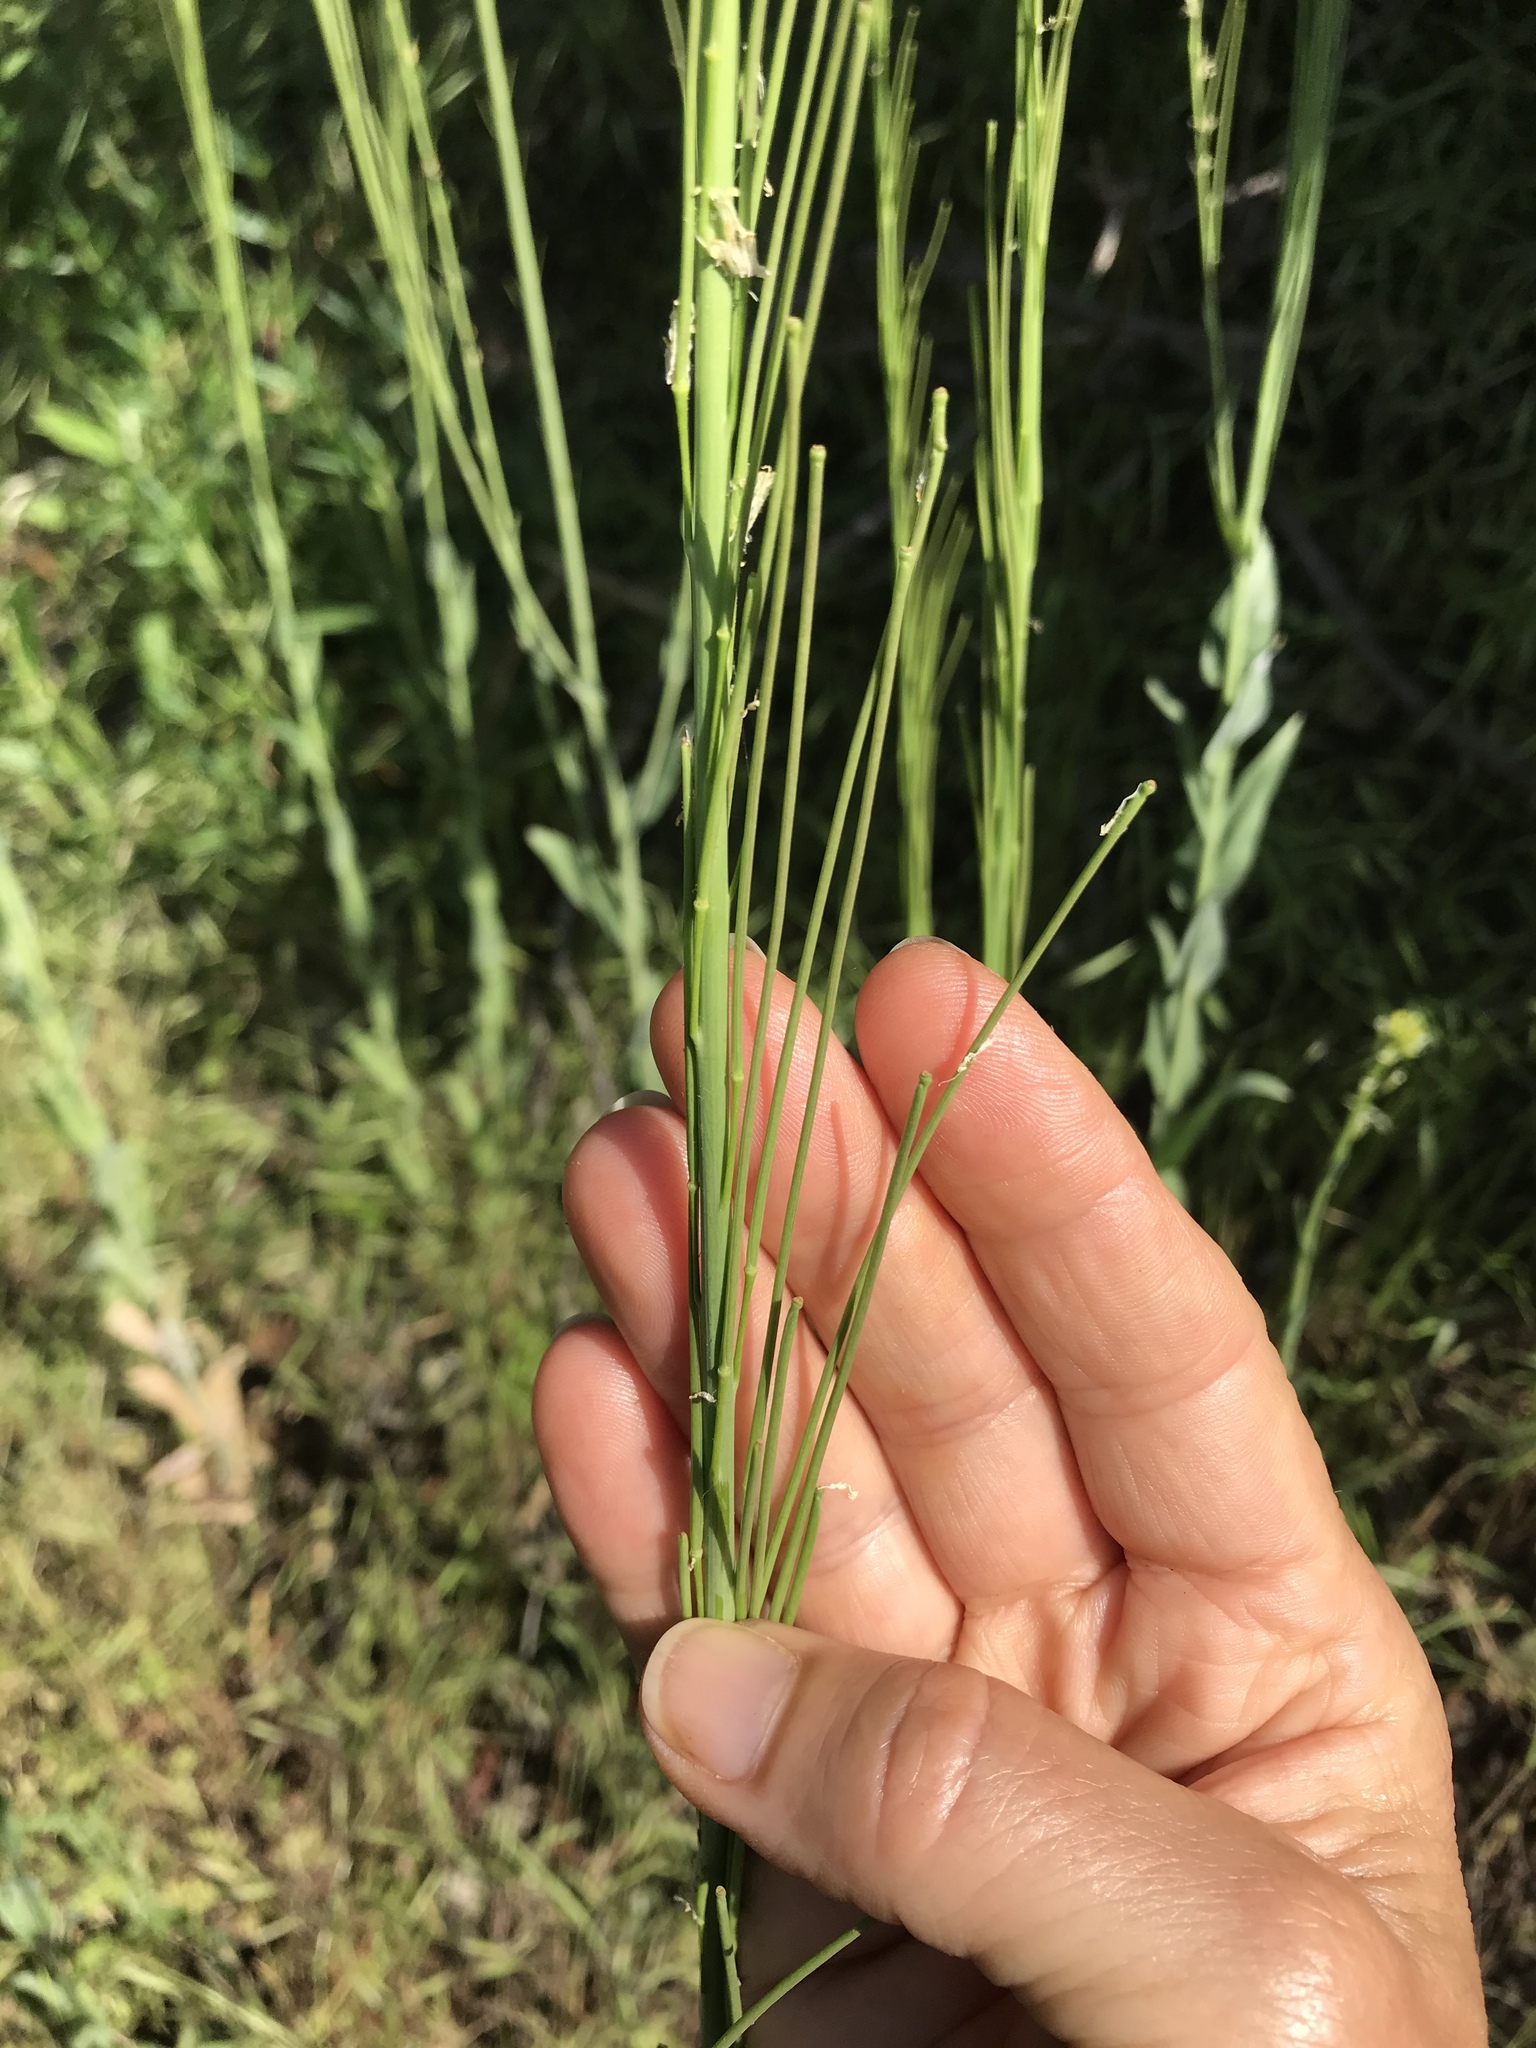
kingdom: Plantae
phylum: Tracheophyta
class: Magnoliopsida
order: Brassicales
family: Brassicaceae
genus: Turritis
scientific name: Turritis glabra
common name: Tower rockcress
